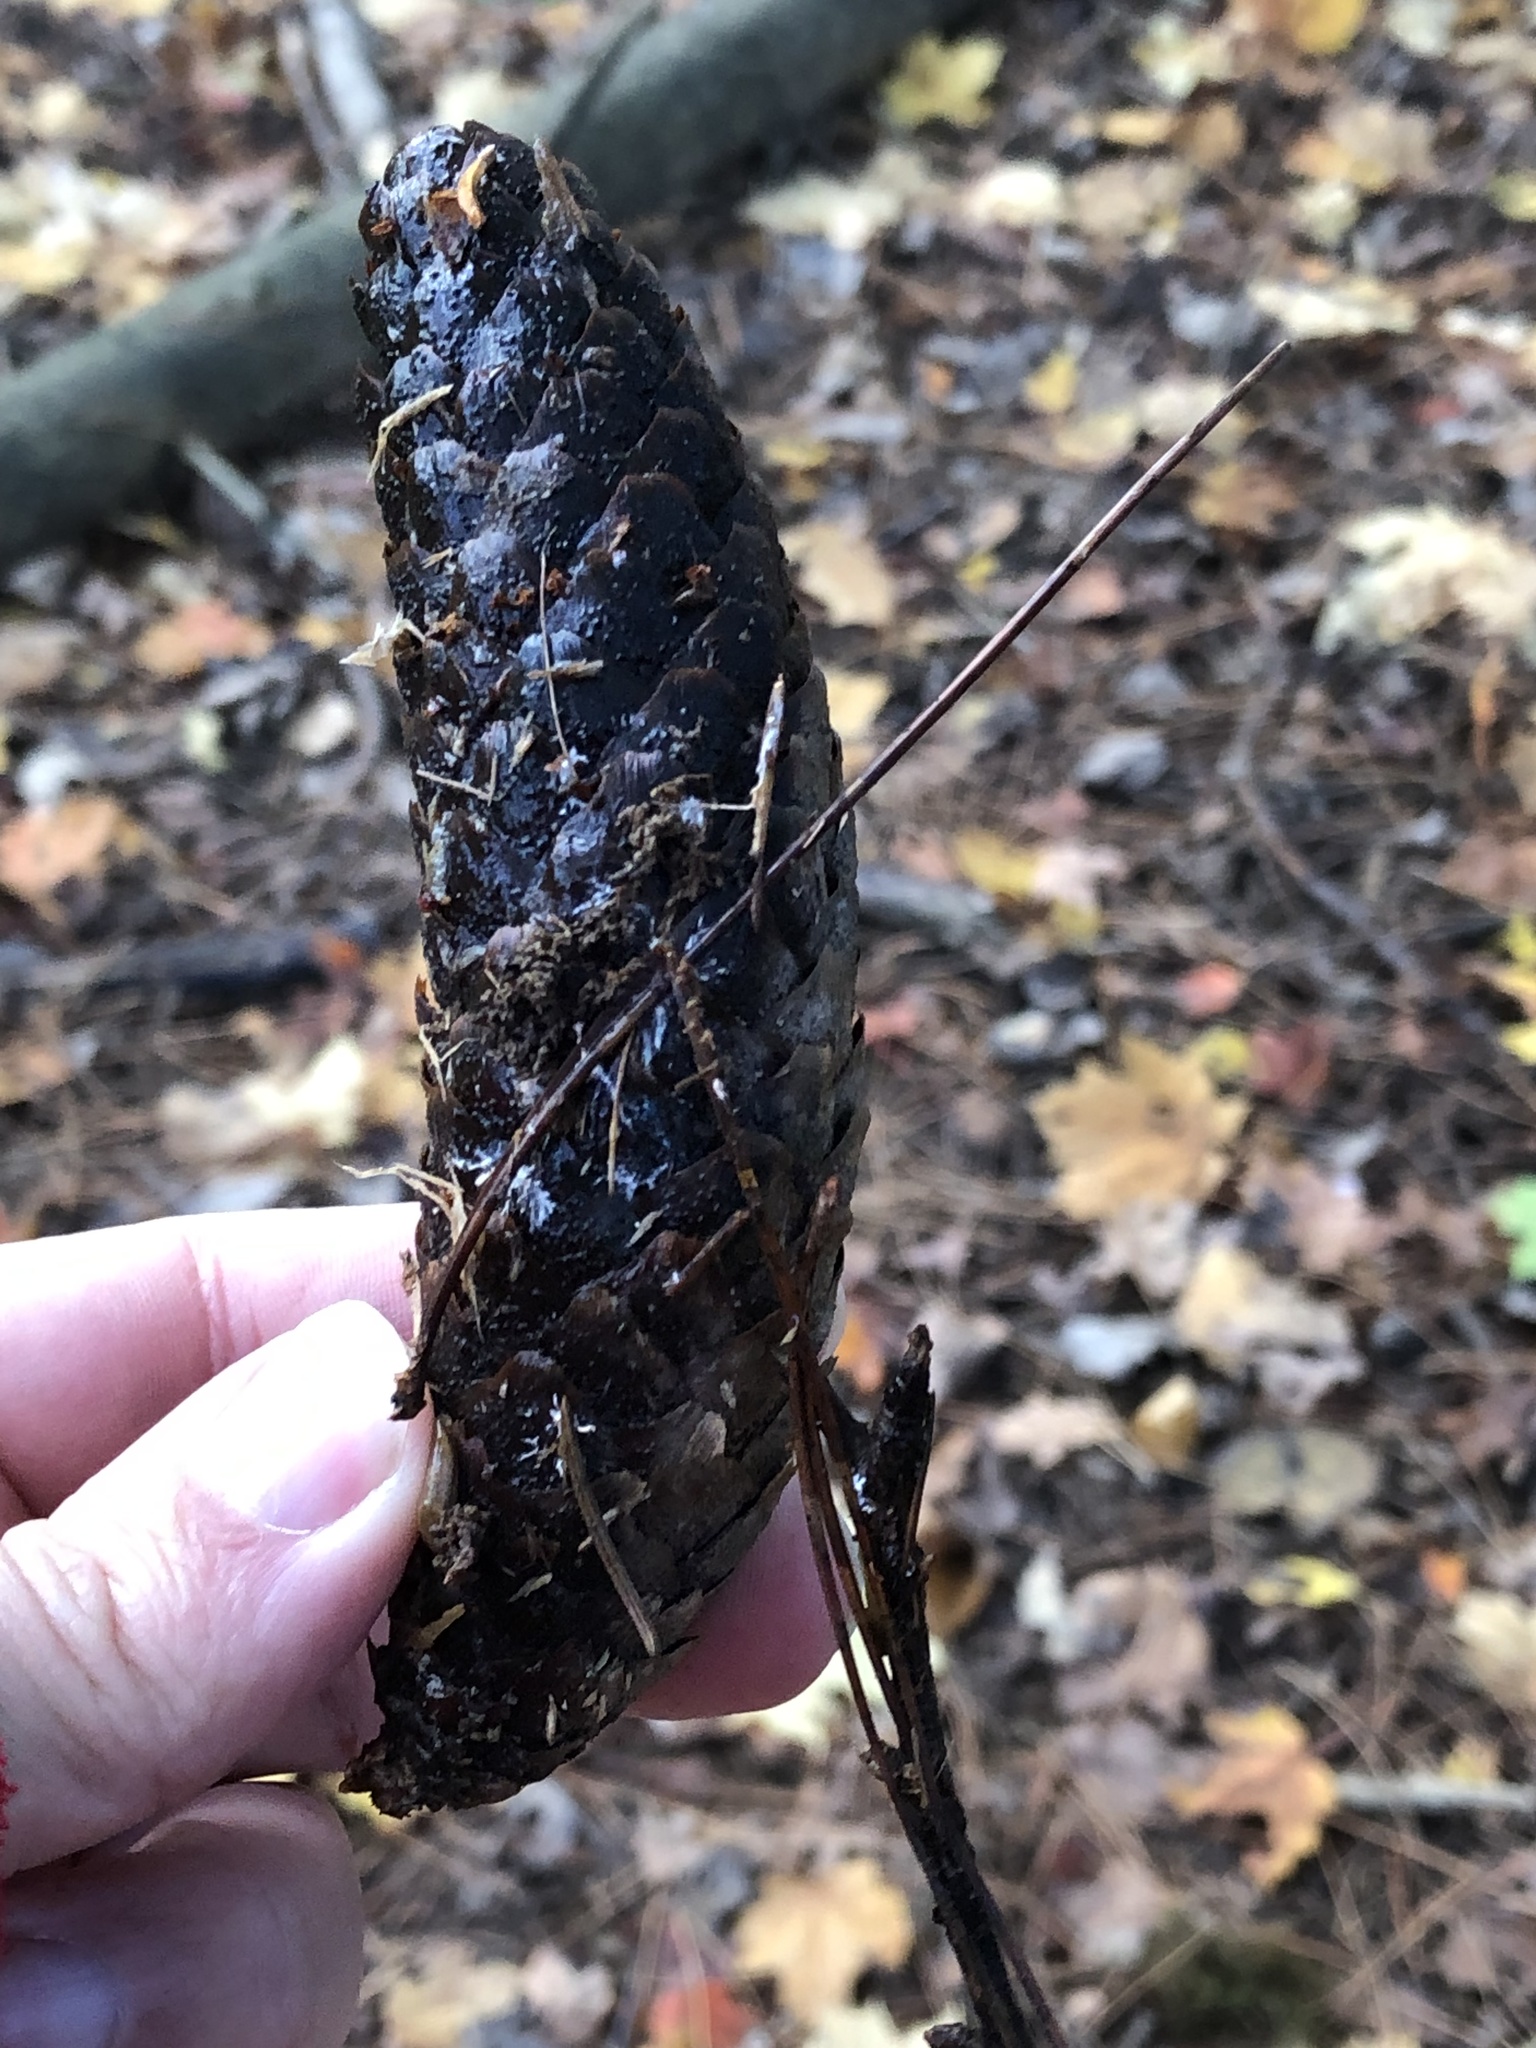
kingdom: Plantae
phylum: Tracheophyta
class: Pinopsida
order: Pinales
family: Pinaceae
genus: Picea
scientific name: Picea abies
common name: Norway spruce
